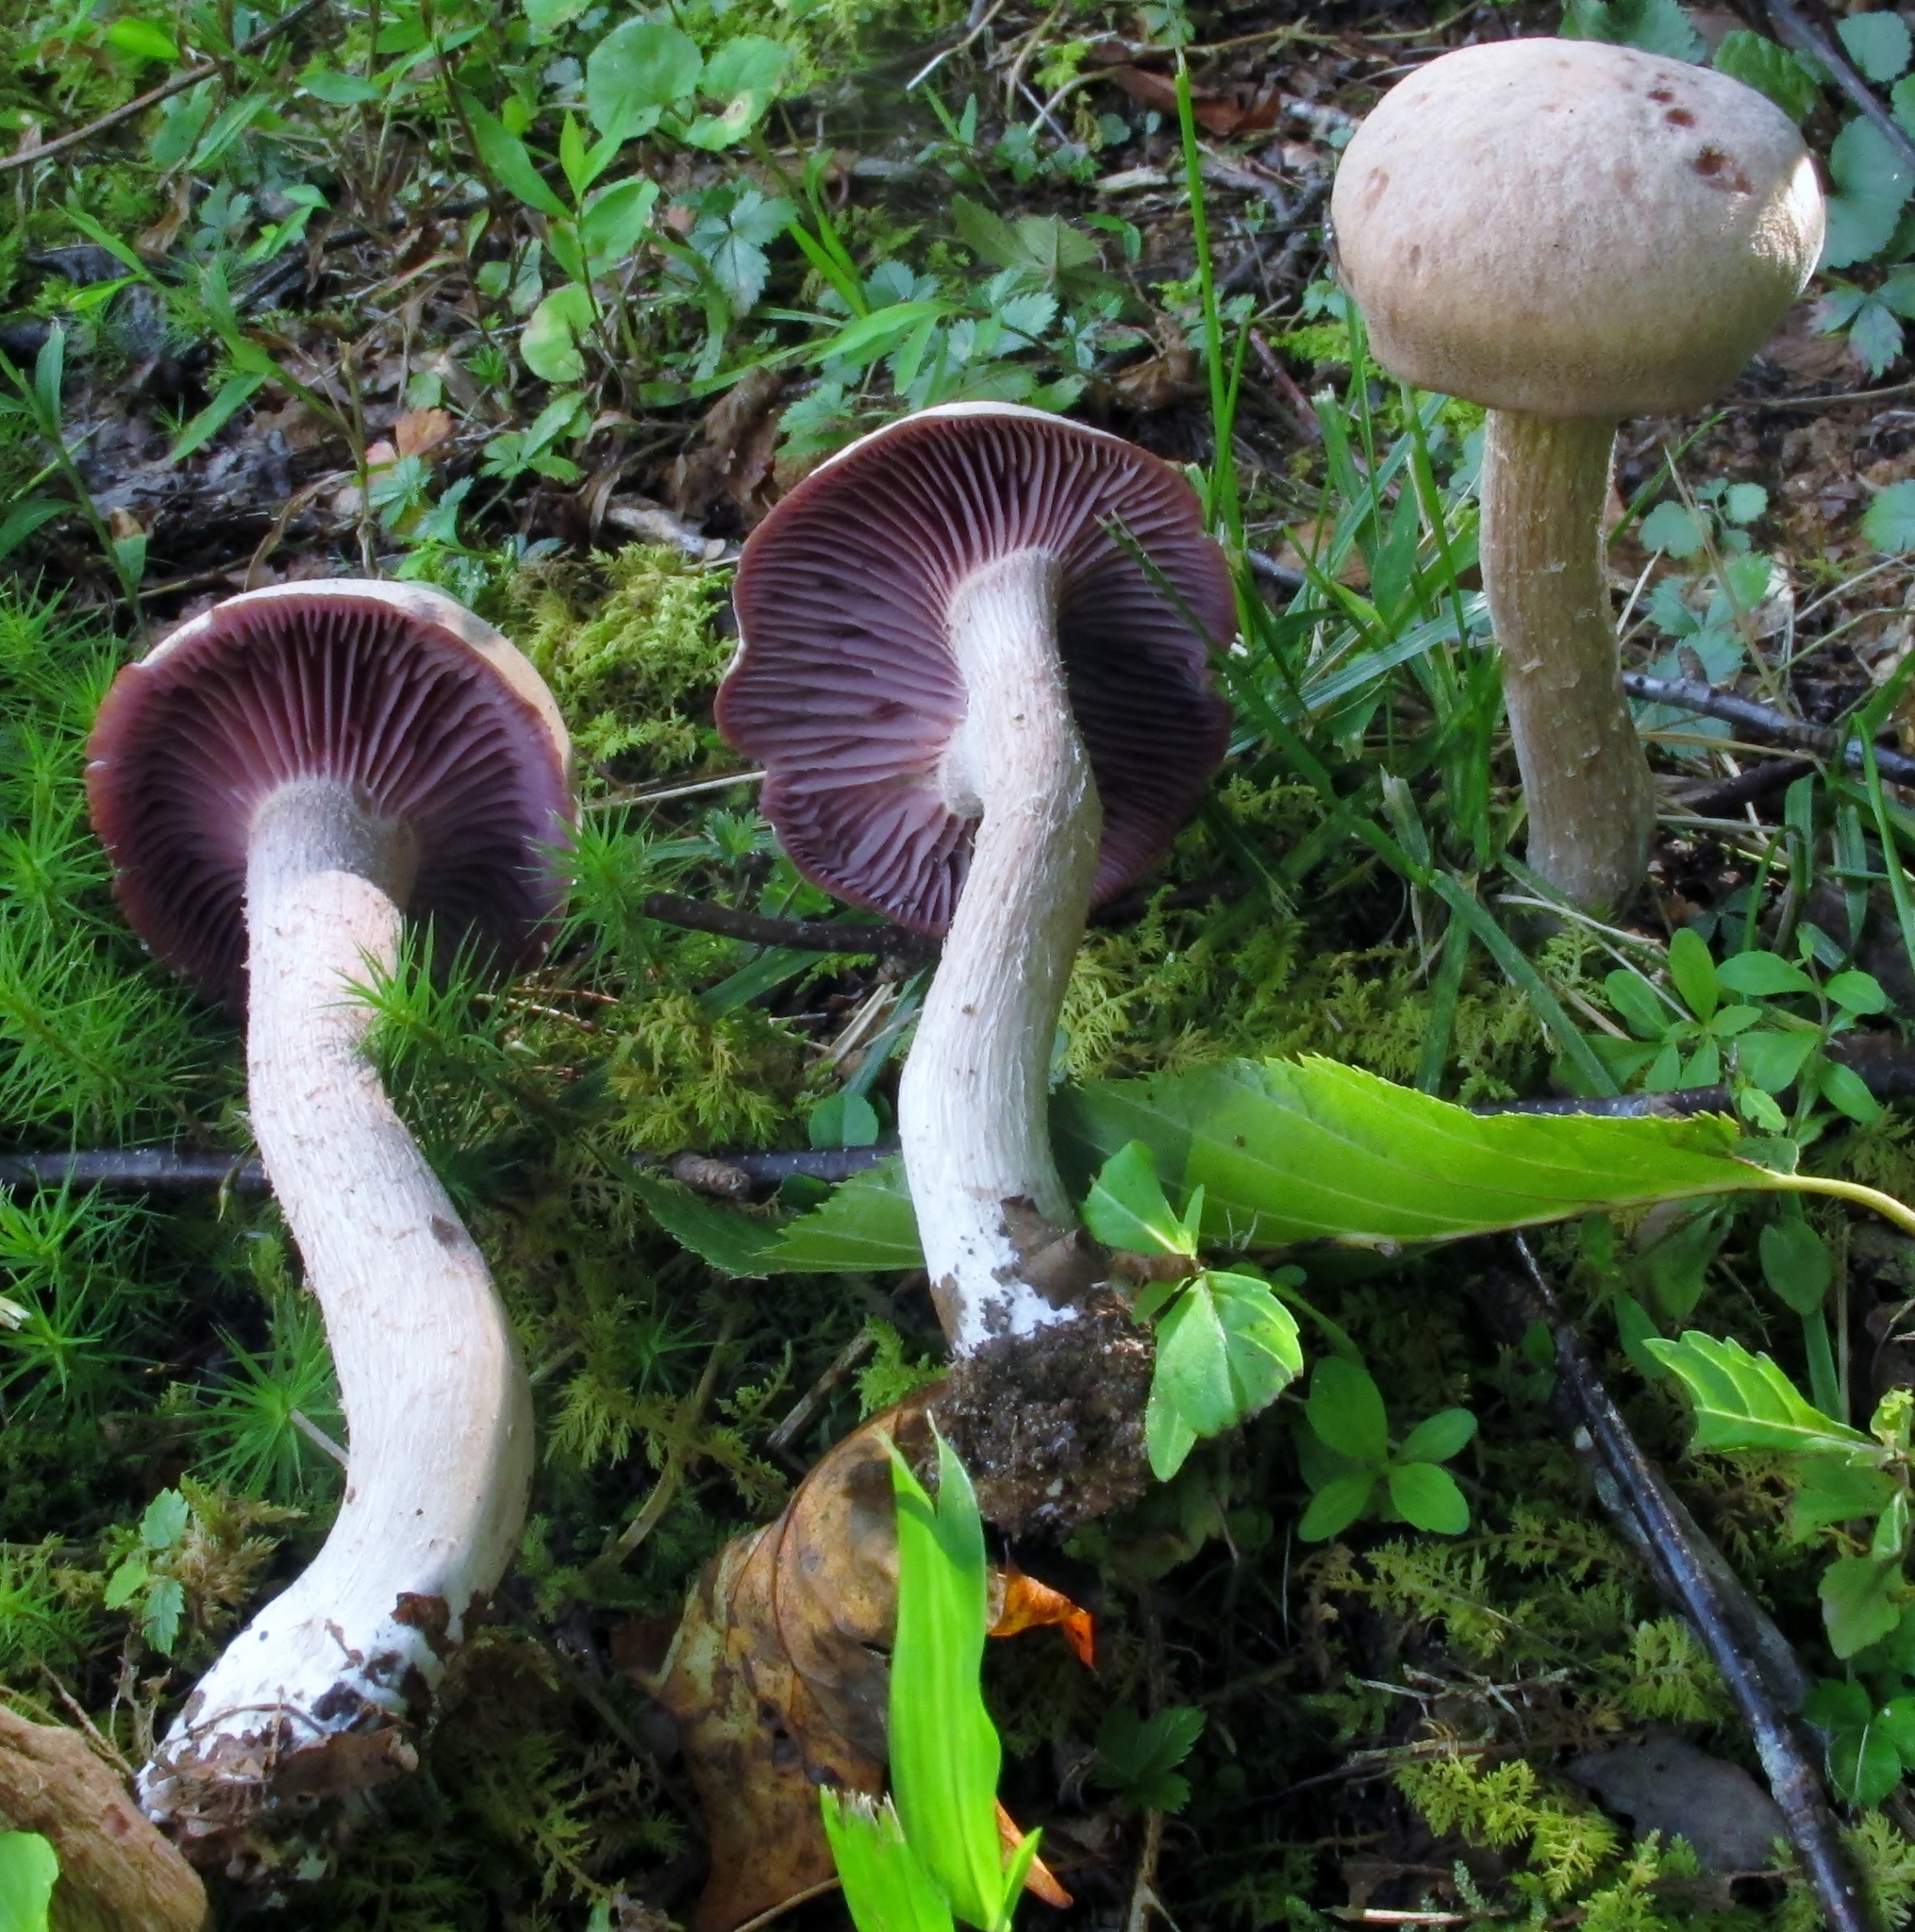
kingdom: Fungi
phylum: Basidiomycota
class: Agaricomycetes
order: Agaricales
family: Hydnangiaceae
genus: Laccaria
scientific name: Laccaria ochropurpurea
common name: Purple laccaria
